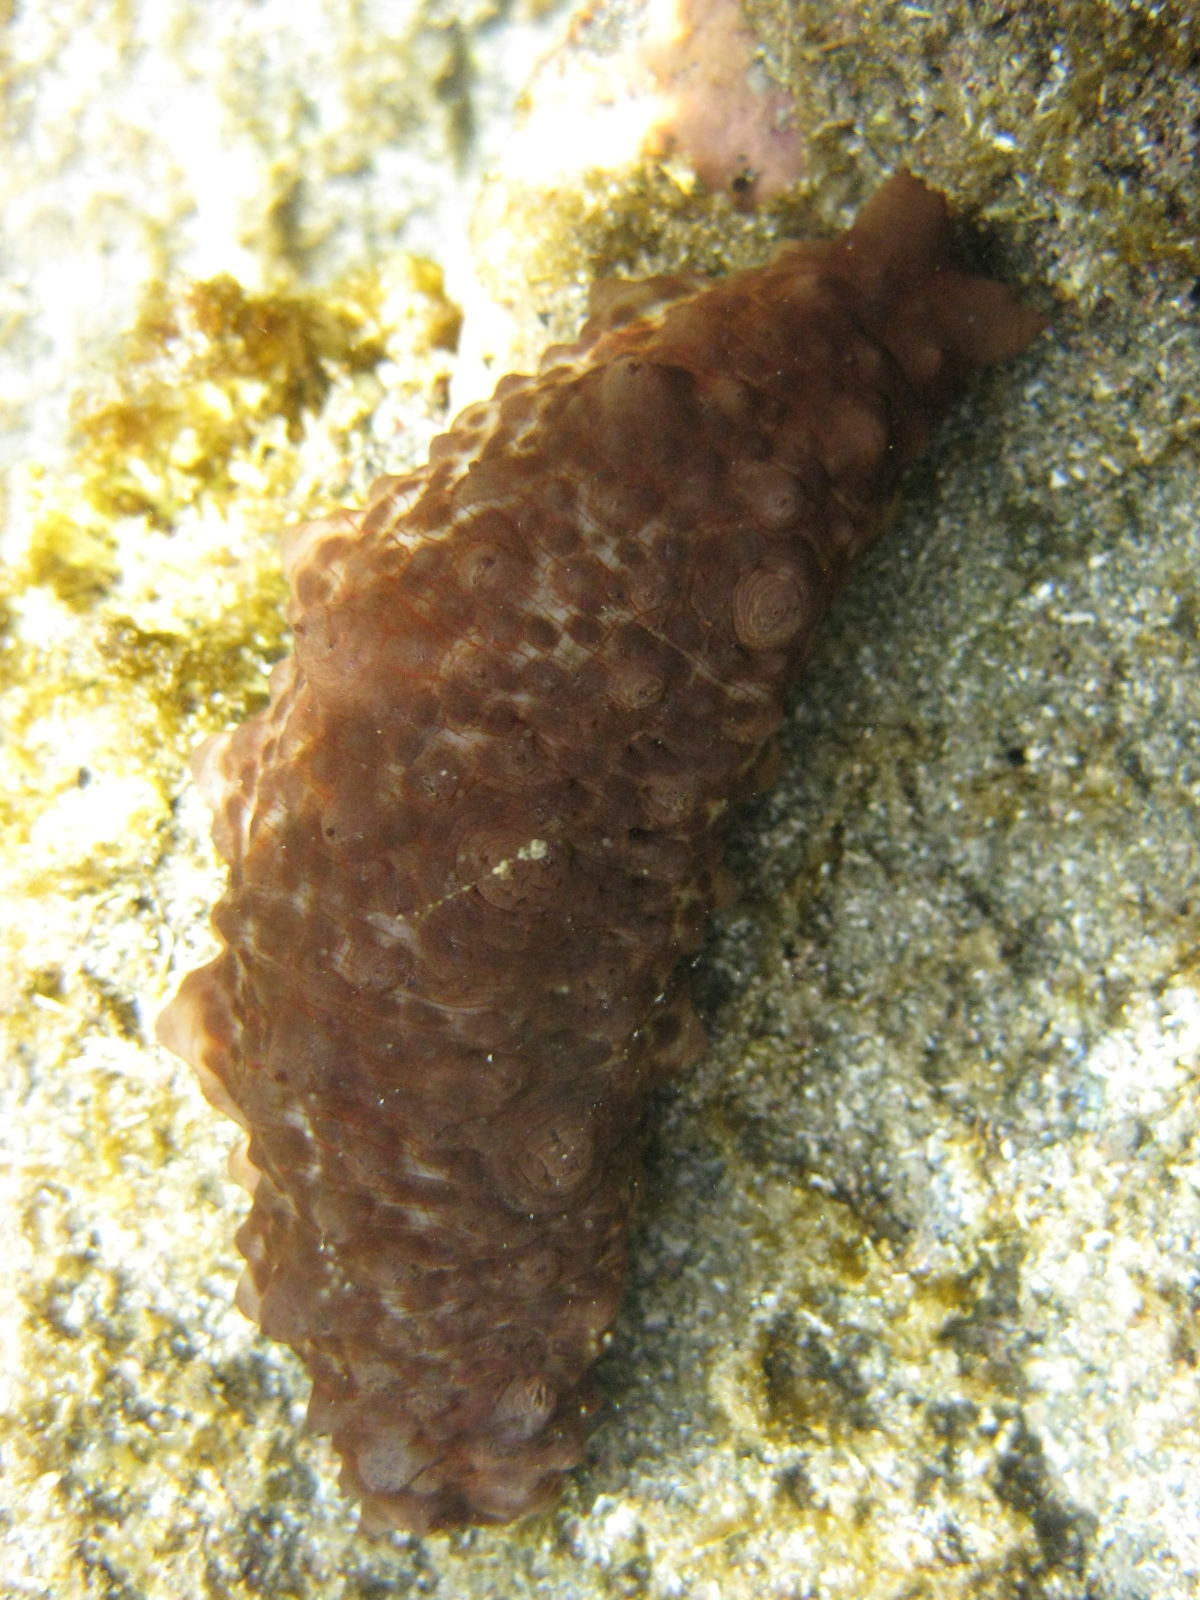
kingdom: Animalia
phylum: Echinodermata
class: Holothuroidea
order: Synallactida
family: Stichopodidae
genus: Australostichopus
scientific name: Australostichopus mollis
